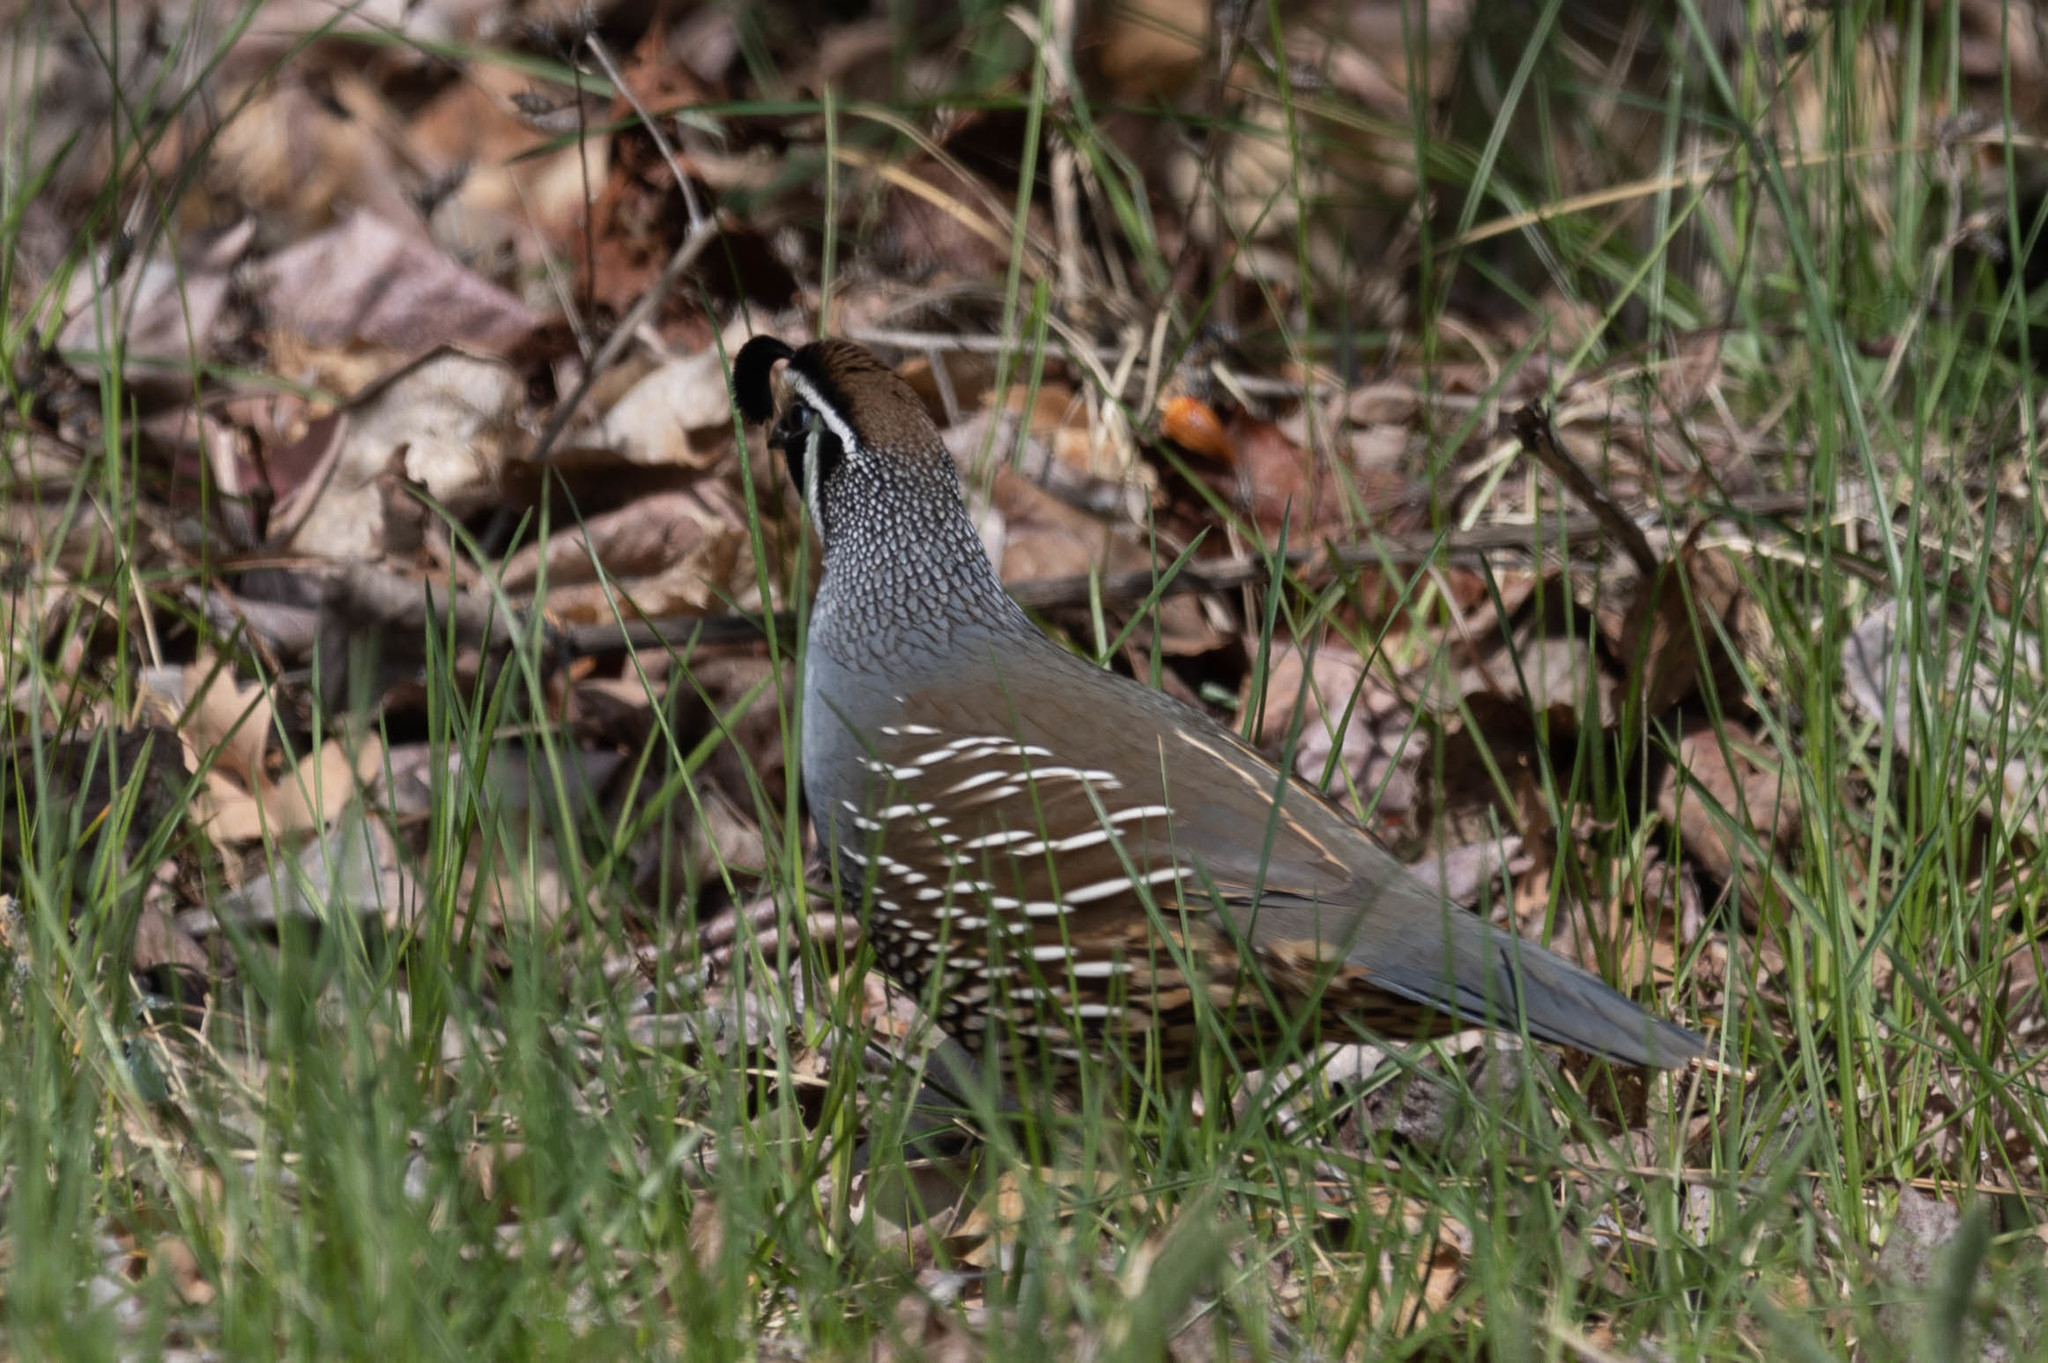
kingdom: Animalia
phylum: Chordata
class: Aves
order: Galliformes
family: Odontophoridae
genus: Callipepla
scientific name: Callipepla californica
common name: California quail
